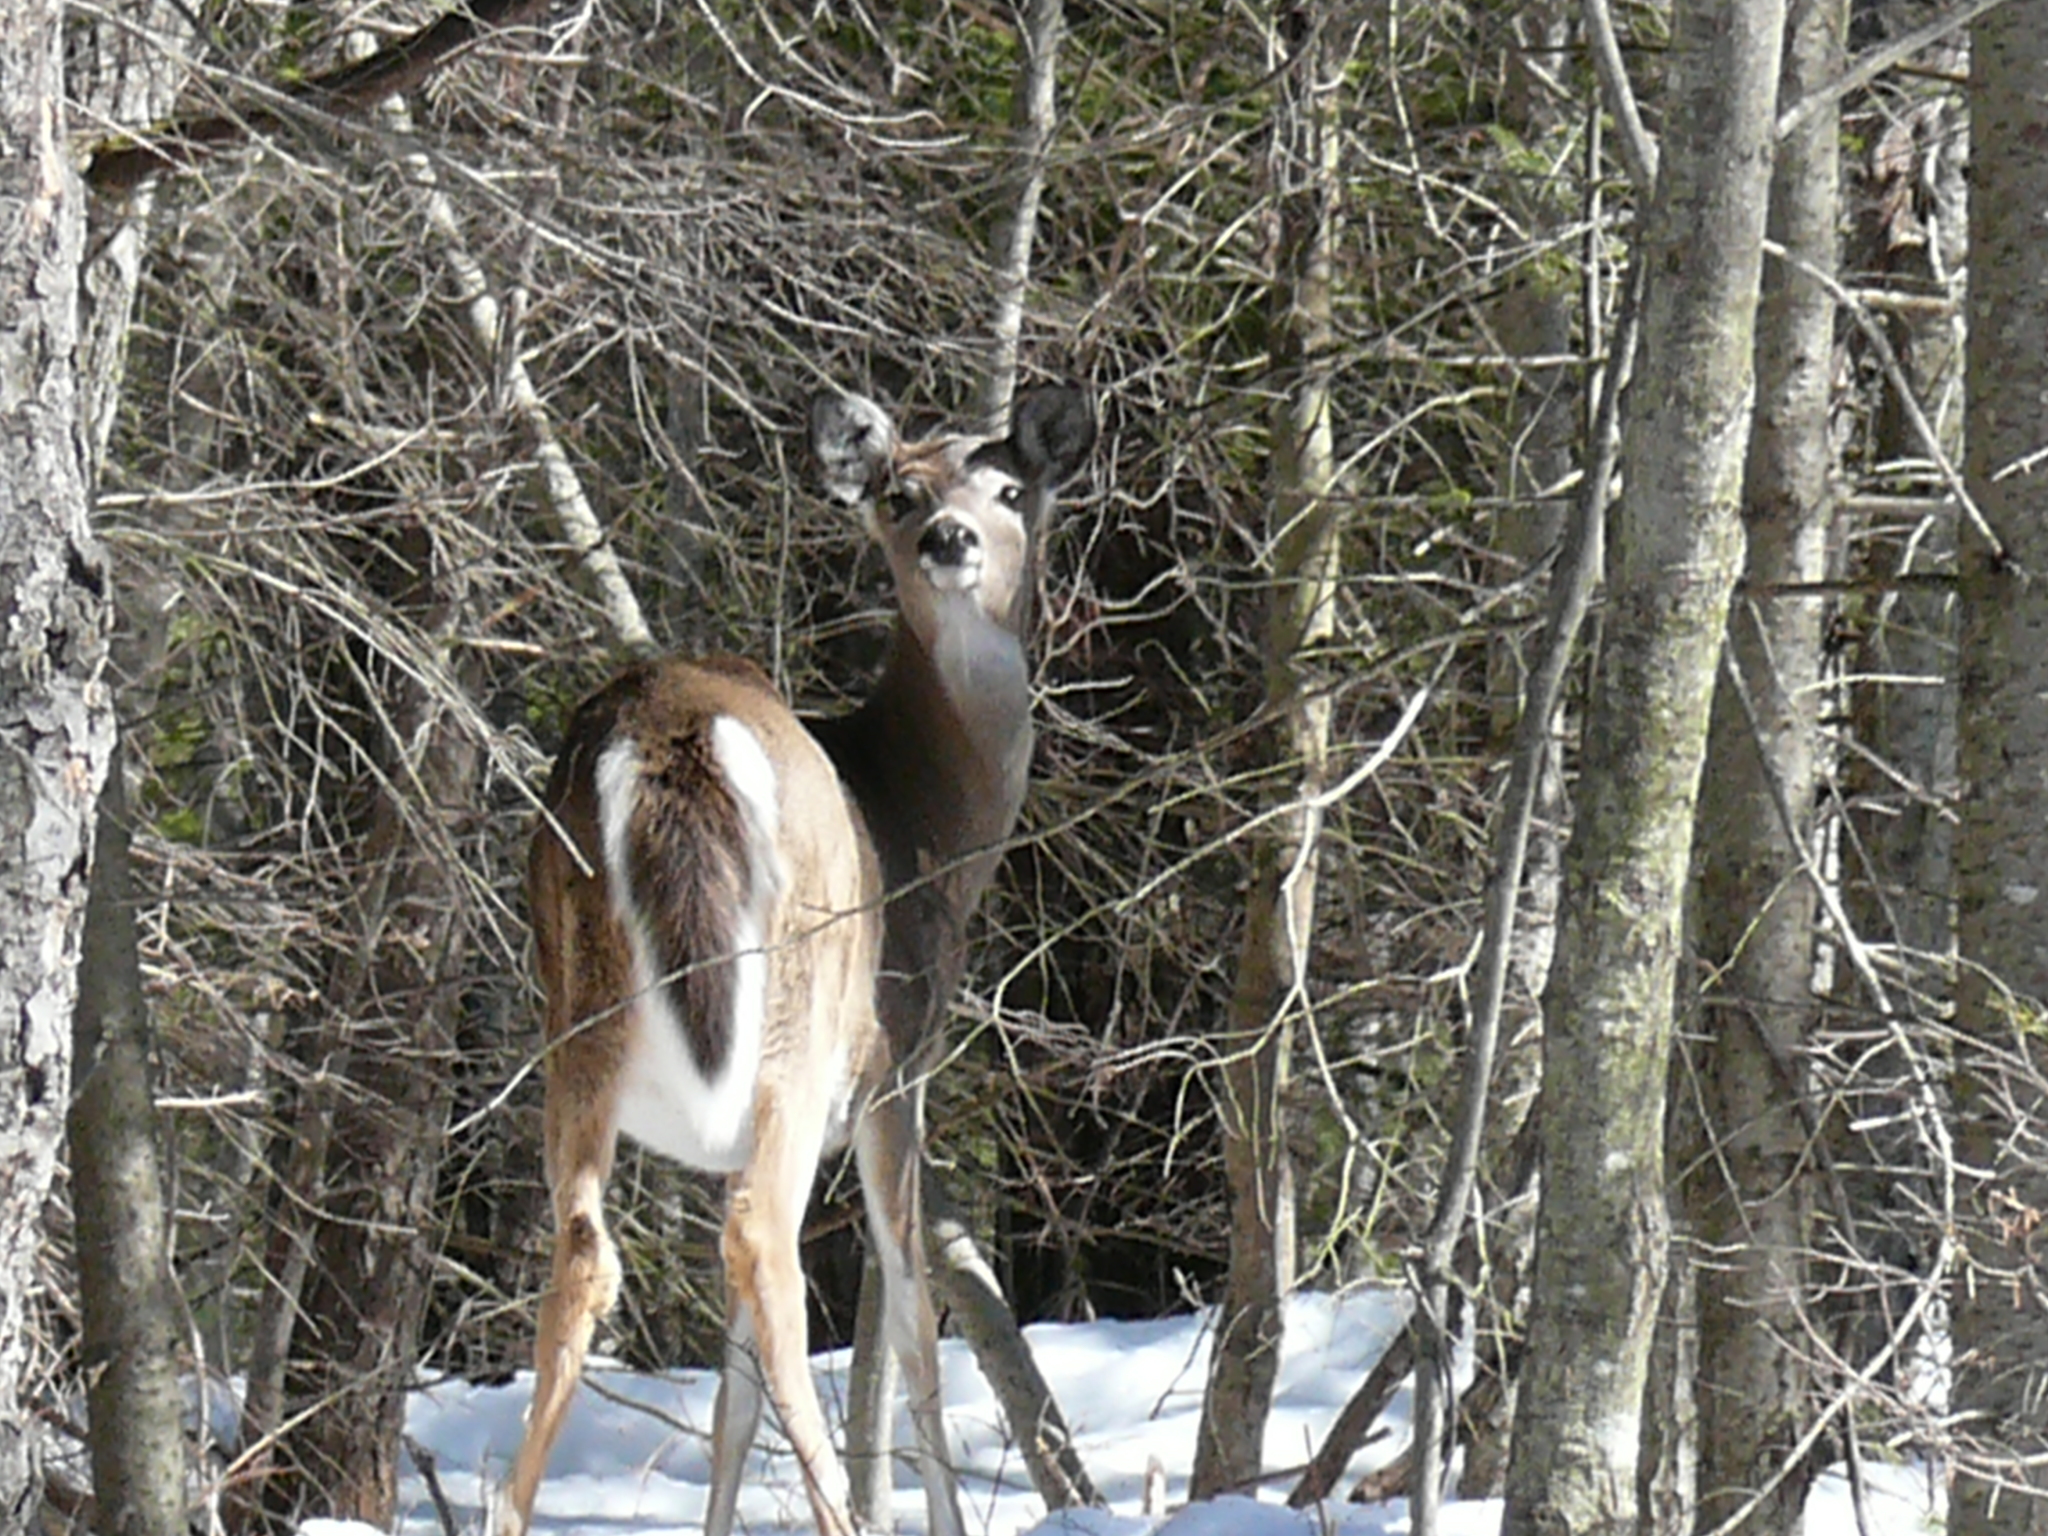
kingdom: Animalia
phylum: Chordata
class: Mammalia
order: Artiodactyla
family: Cervidae
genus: Odocoileus
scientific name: Odocoileus virginianus
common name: White-tailed deer
